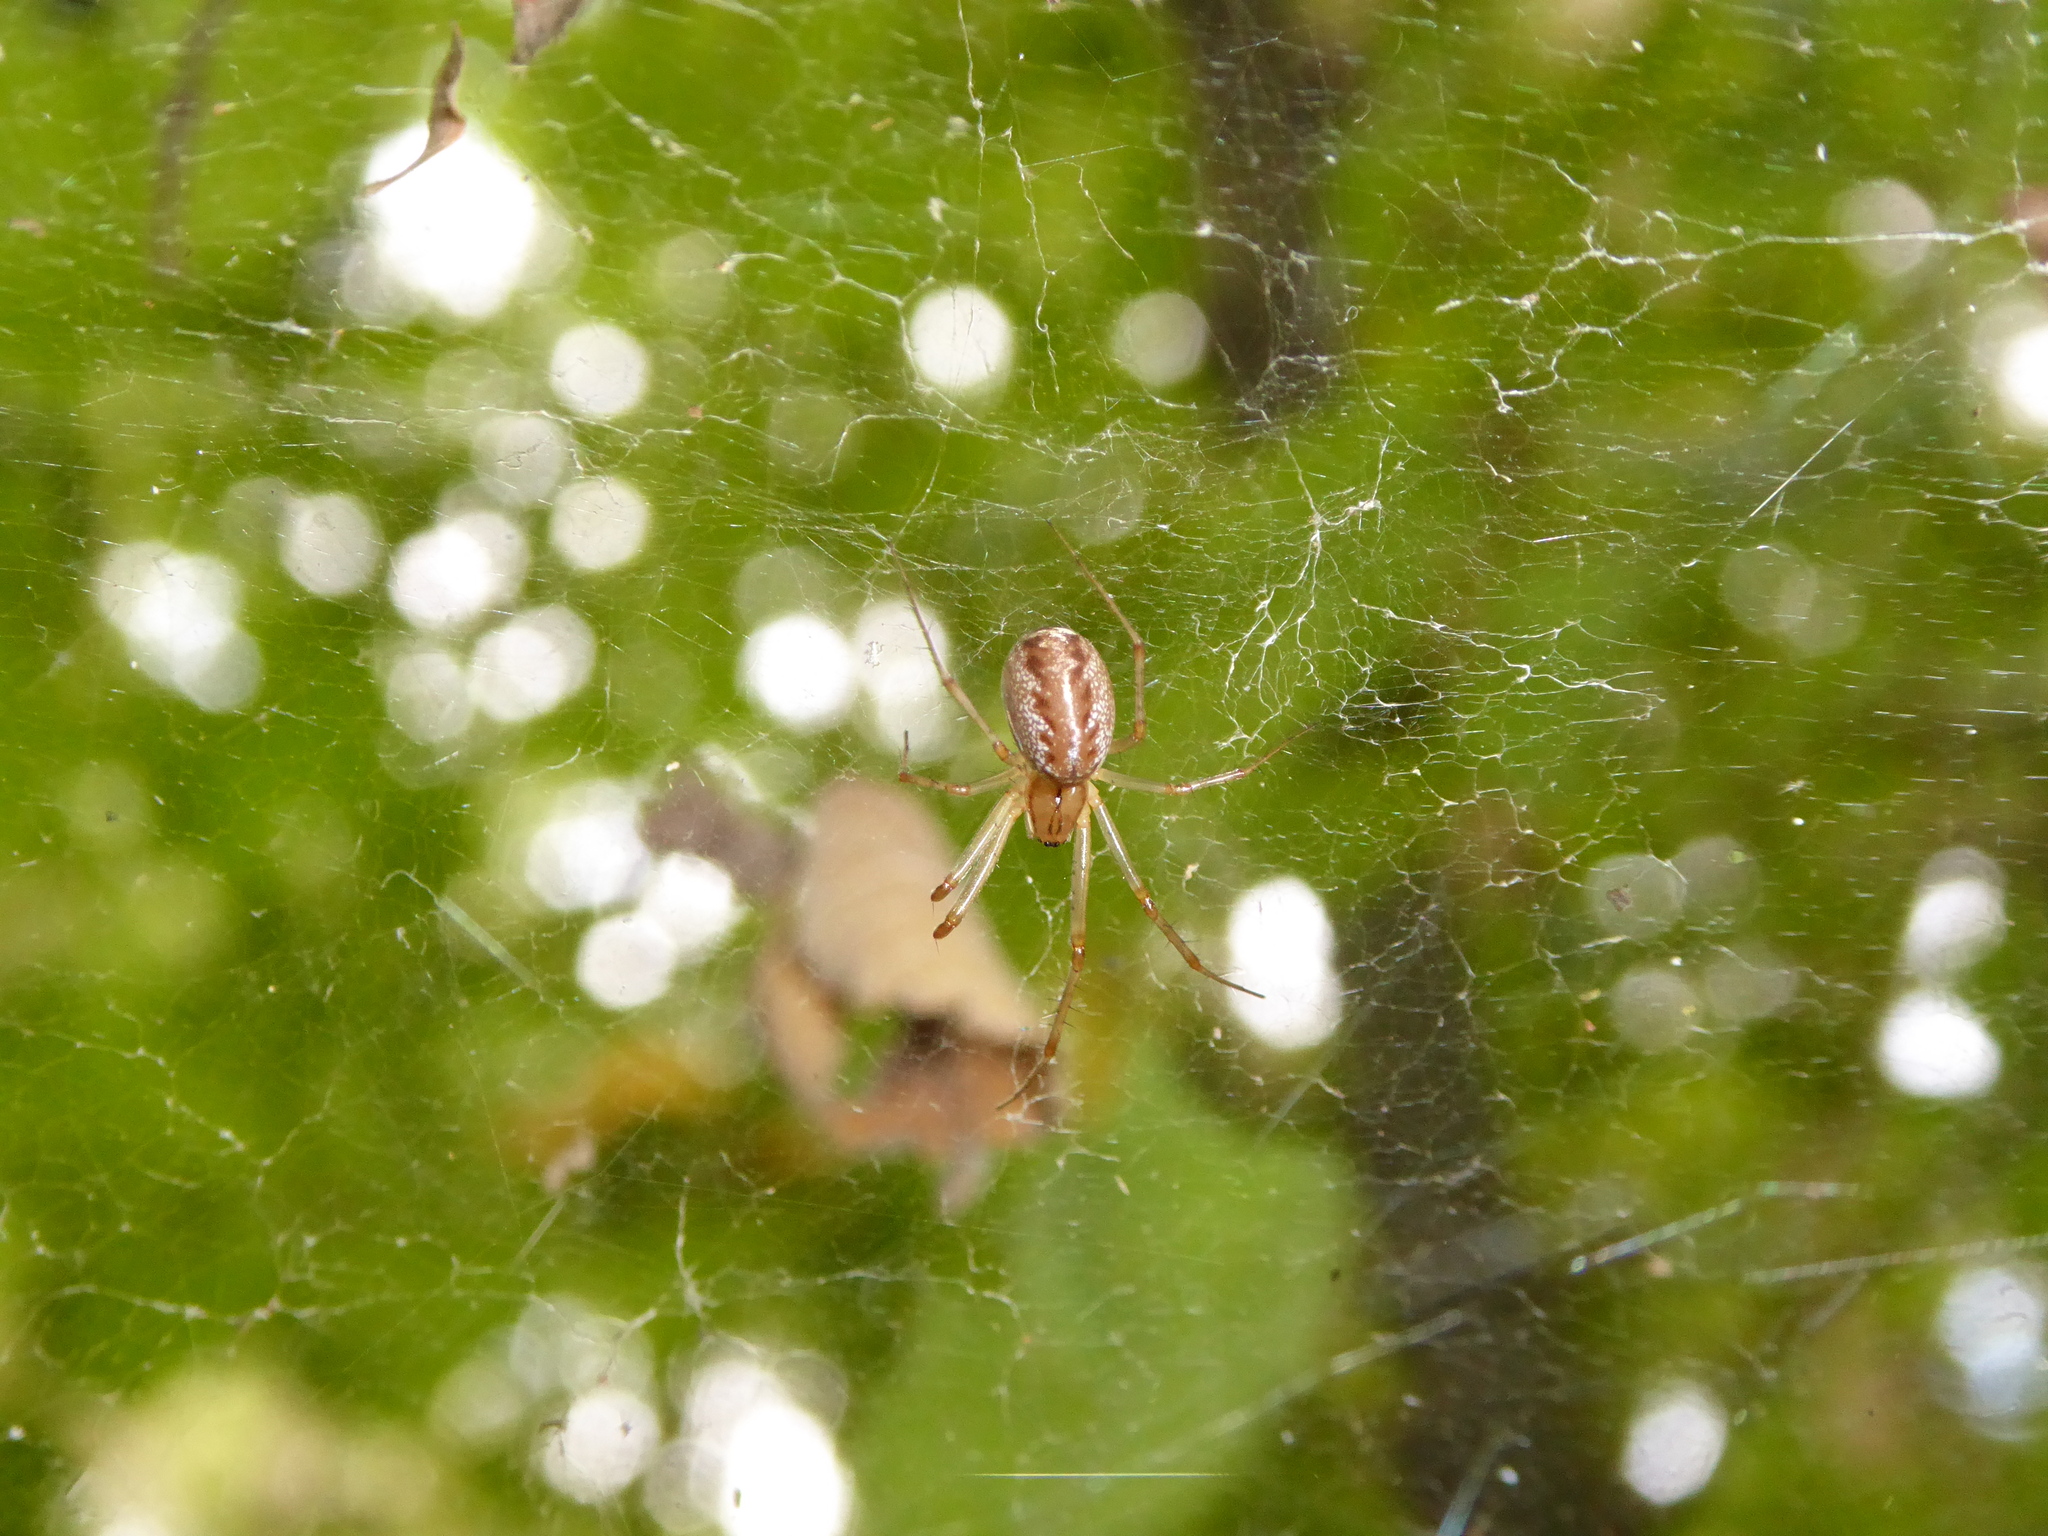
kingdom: Animalia
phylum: Arthropoda
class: Arachnida
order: Araneae
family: Linyphiidae
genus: Linyphia
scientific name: Linyphia triangularis
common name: Money spider
